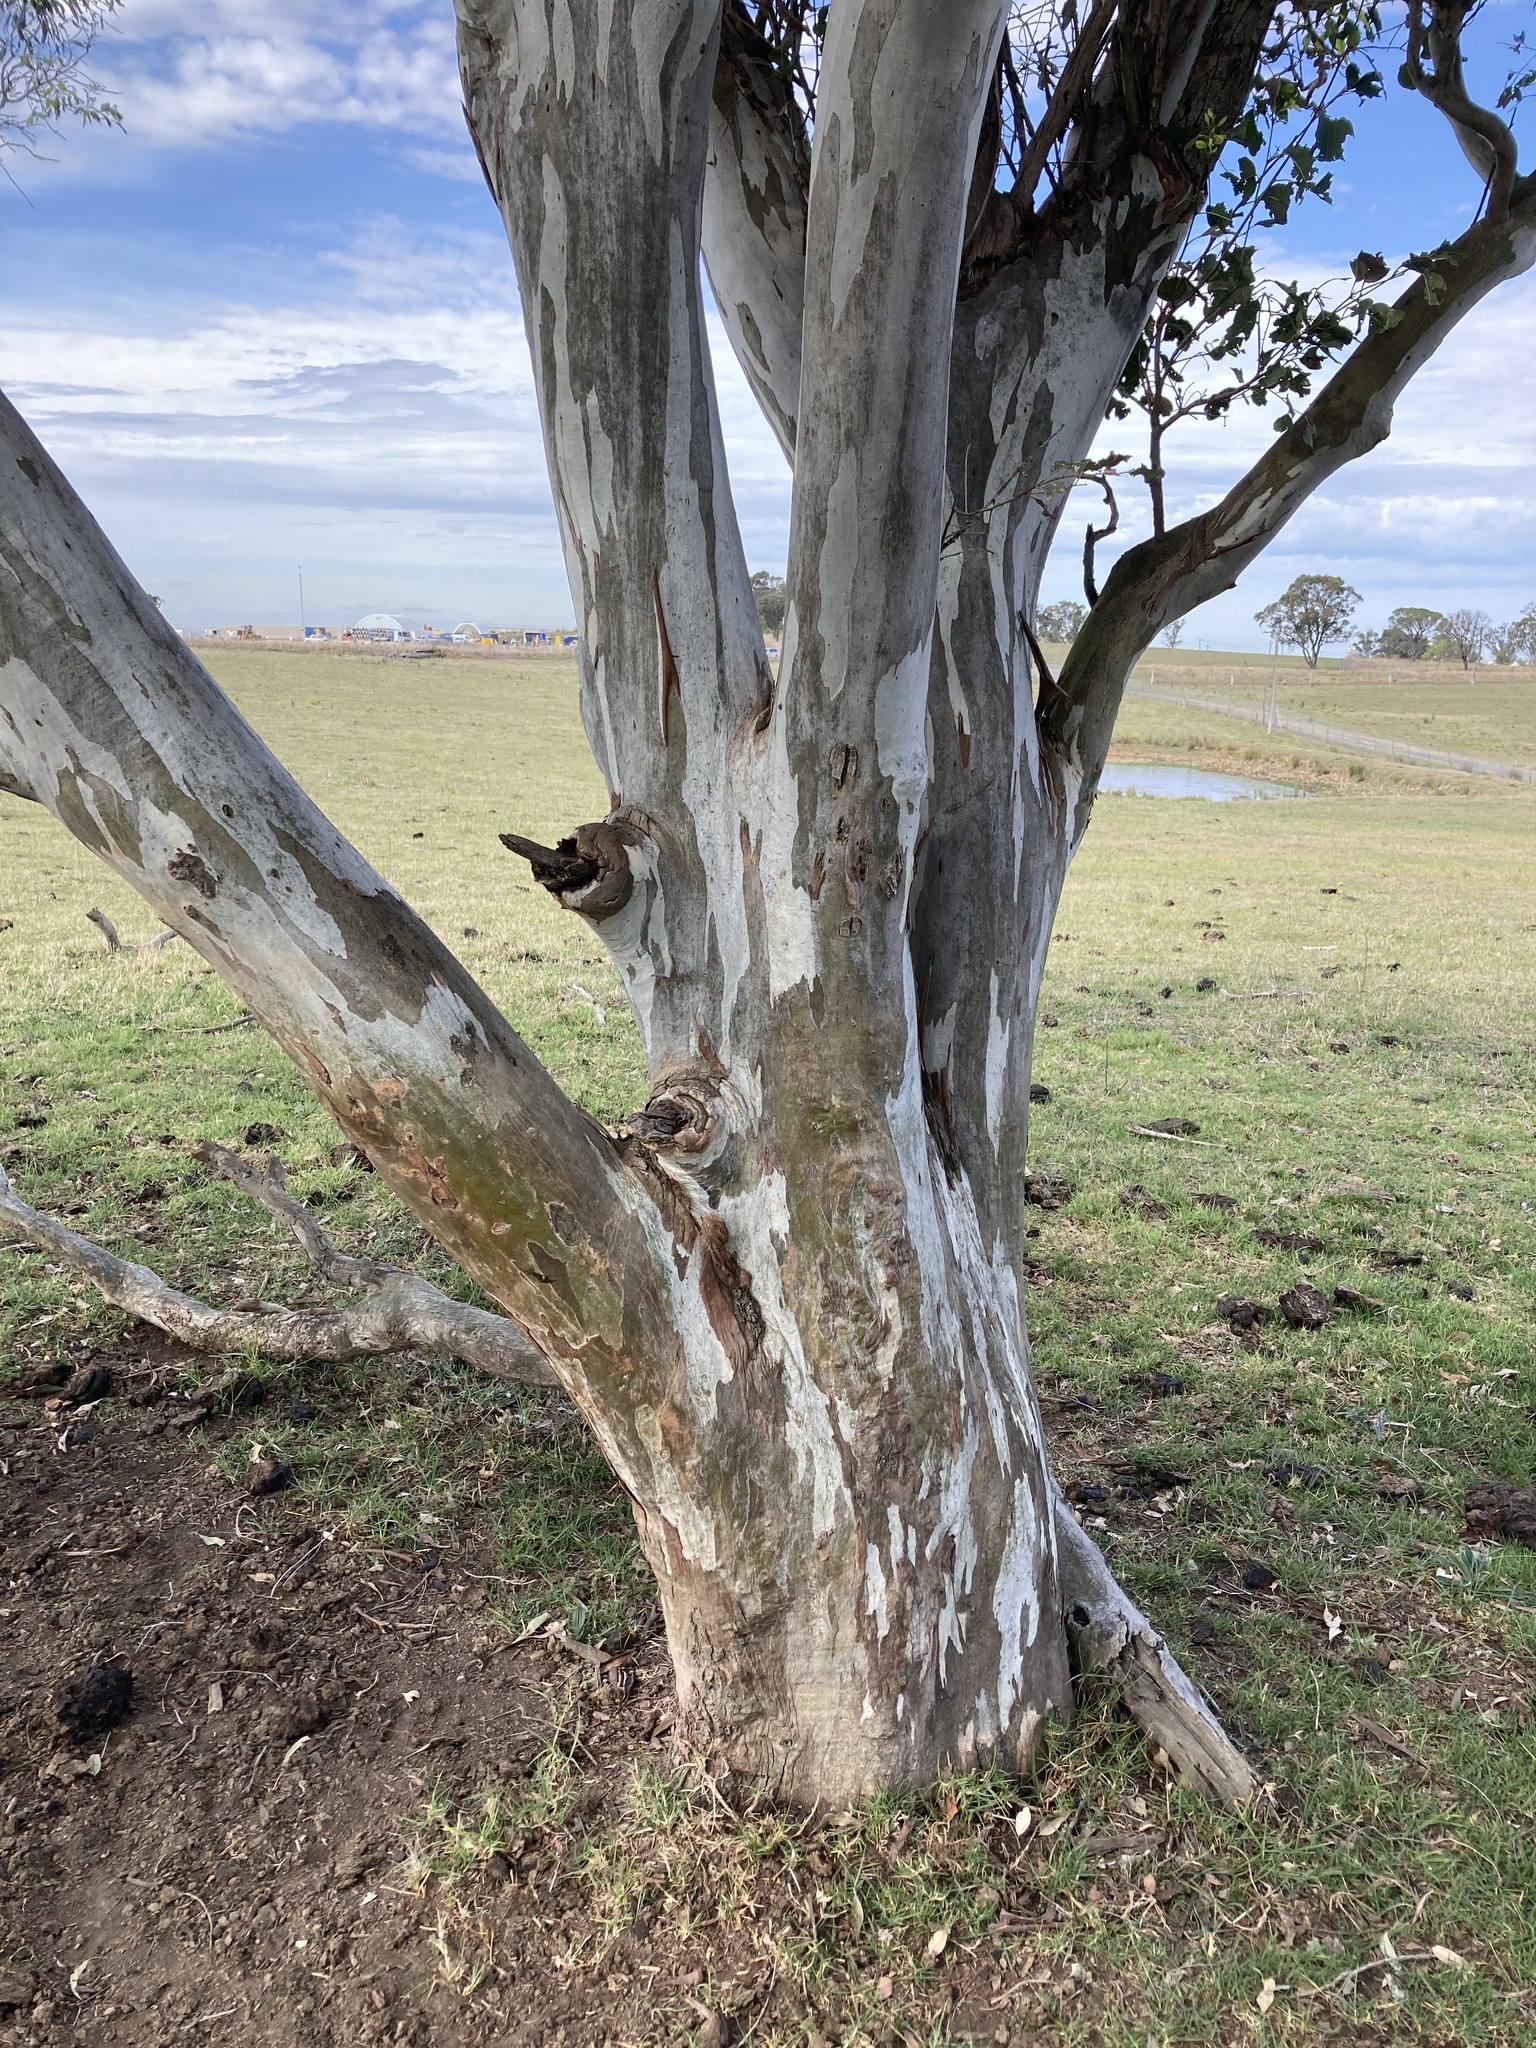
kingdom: Plantae
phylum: Tracheophyta
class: Magnoliopsida
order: Myrtales
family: Myrtaceae
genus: Eucalyptus
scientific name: Eucalyptus amplifolia
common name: Cabbage gum
